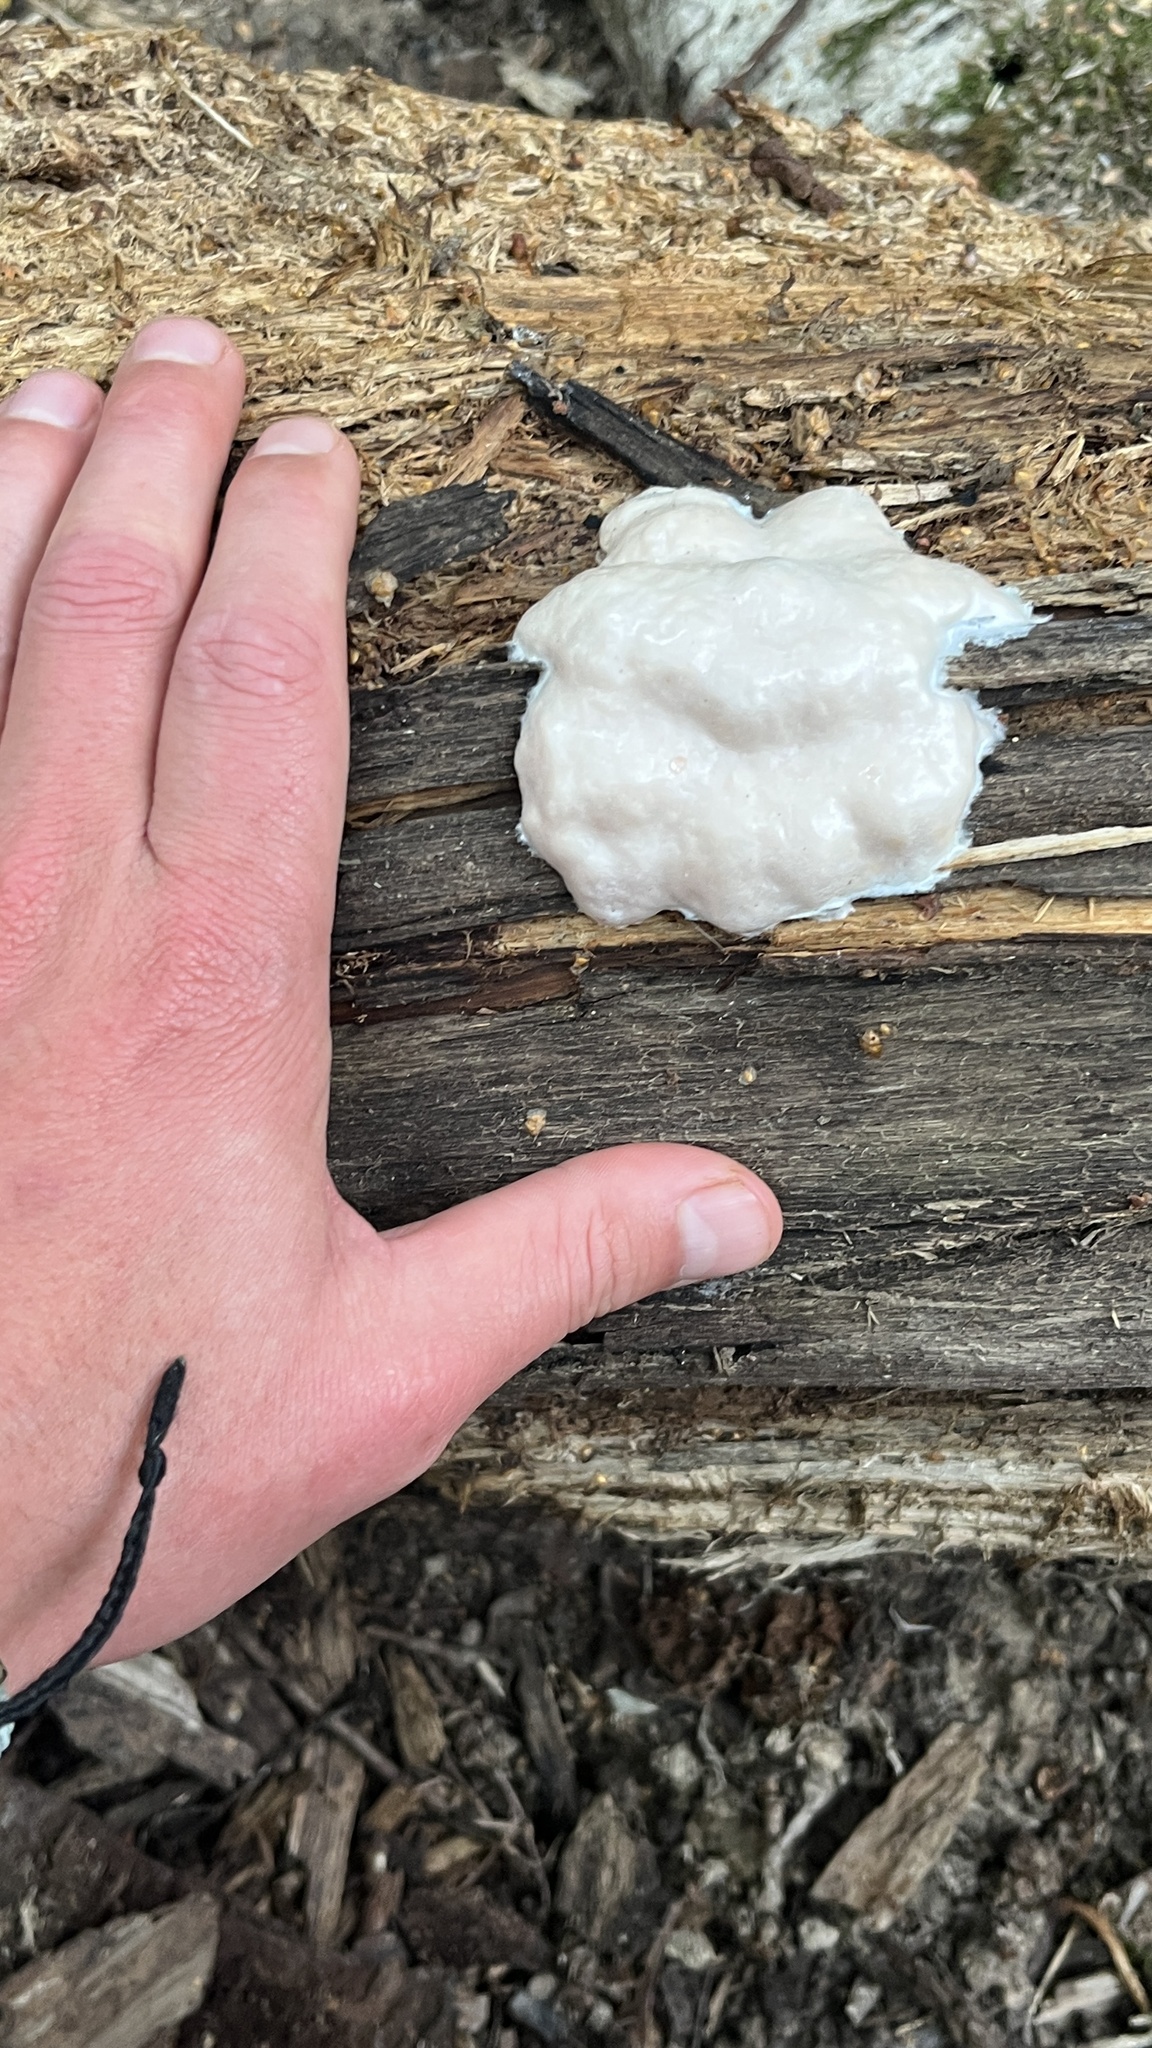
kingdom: Protozoa
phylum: Mycetozoa
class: Myxomycetes
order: Cribrariales
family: Tubiferaceae
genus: Reticularia
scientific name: Reticularia lycoperdon
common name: False puffball
